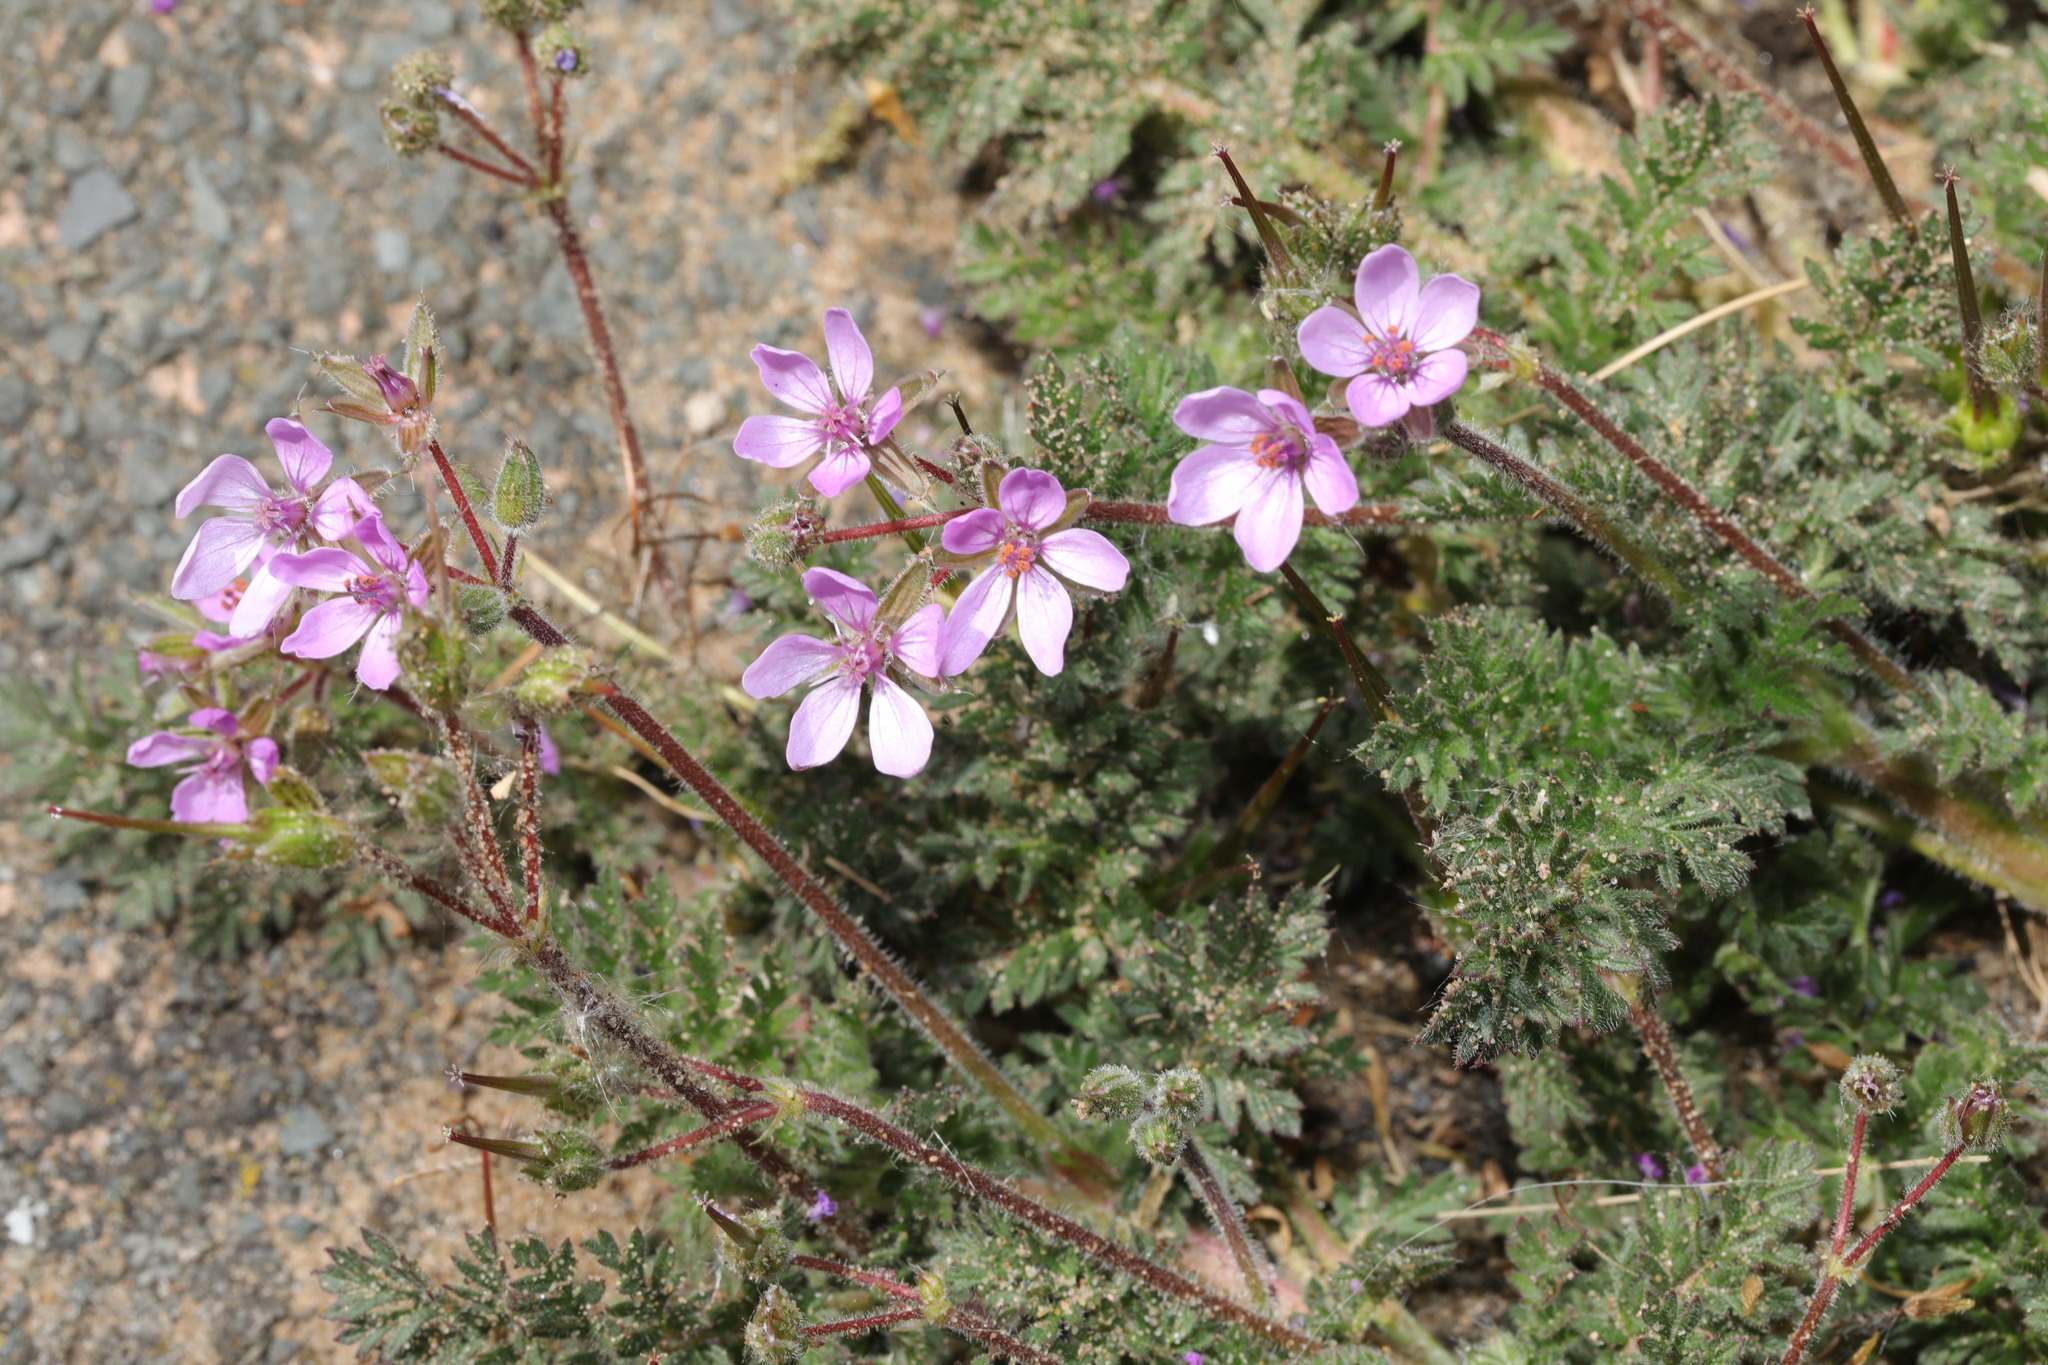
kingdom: Plantae
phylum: Tracheophyta
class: Magnoliopsida
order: Geraniales
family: Geraniaceae
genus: Erodium
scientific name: Erodium lebelii
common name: Sticky stork's-bill
